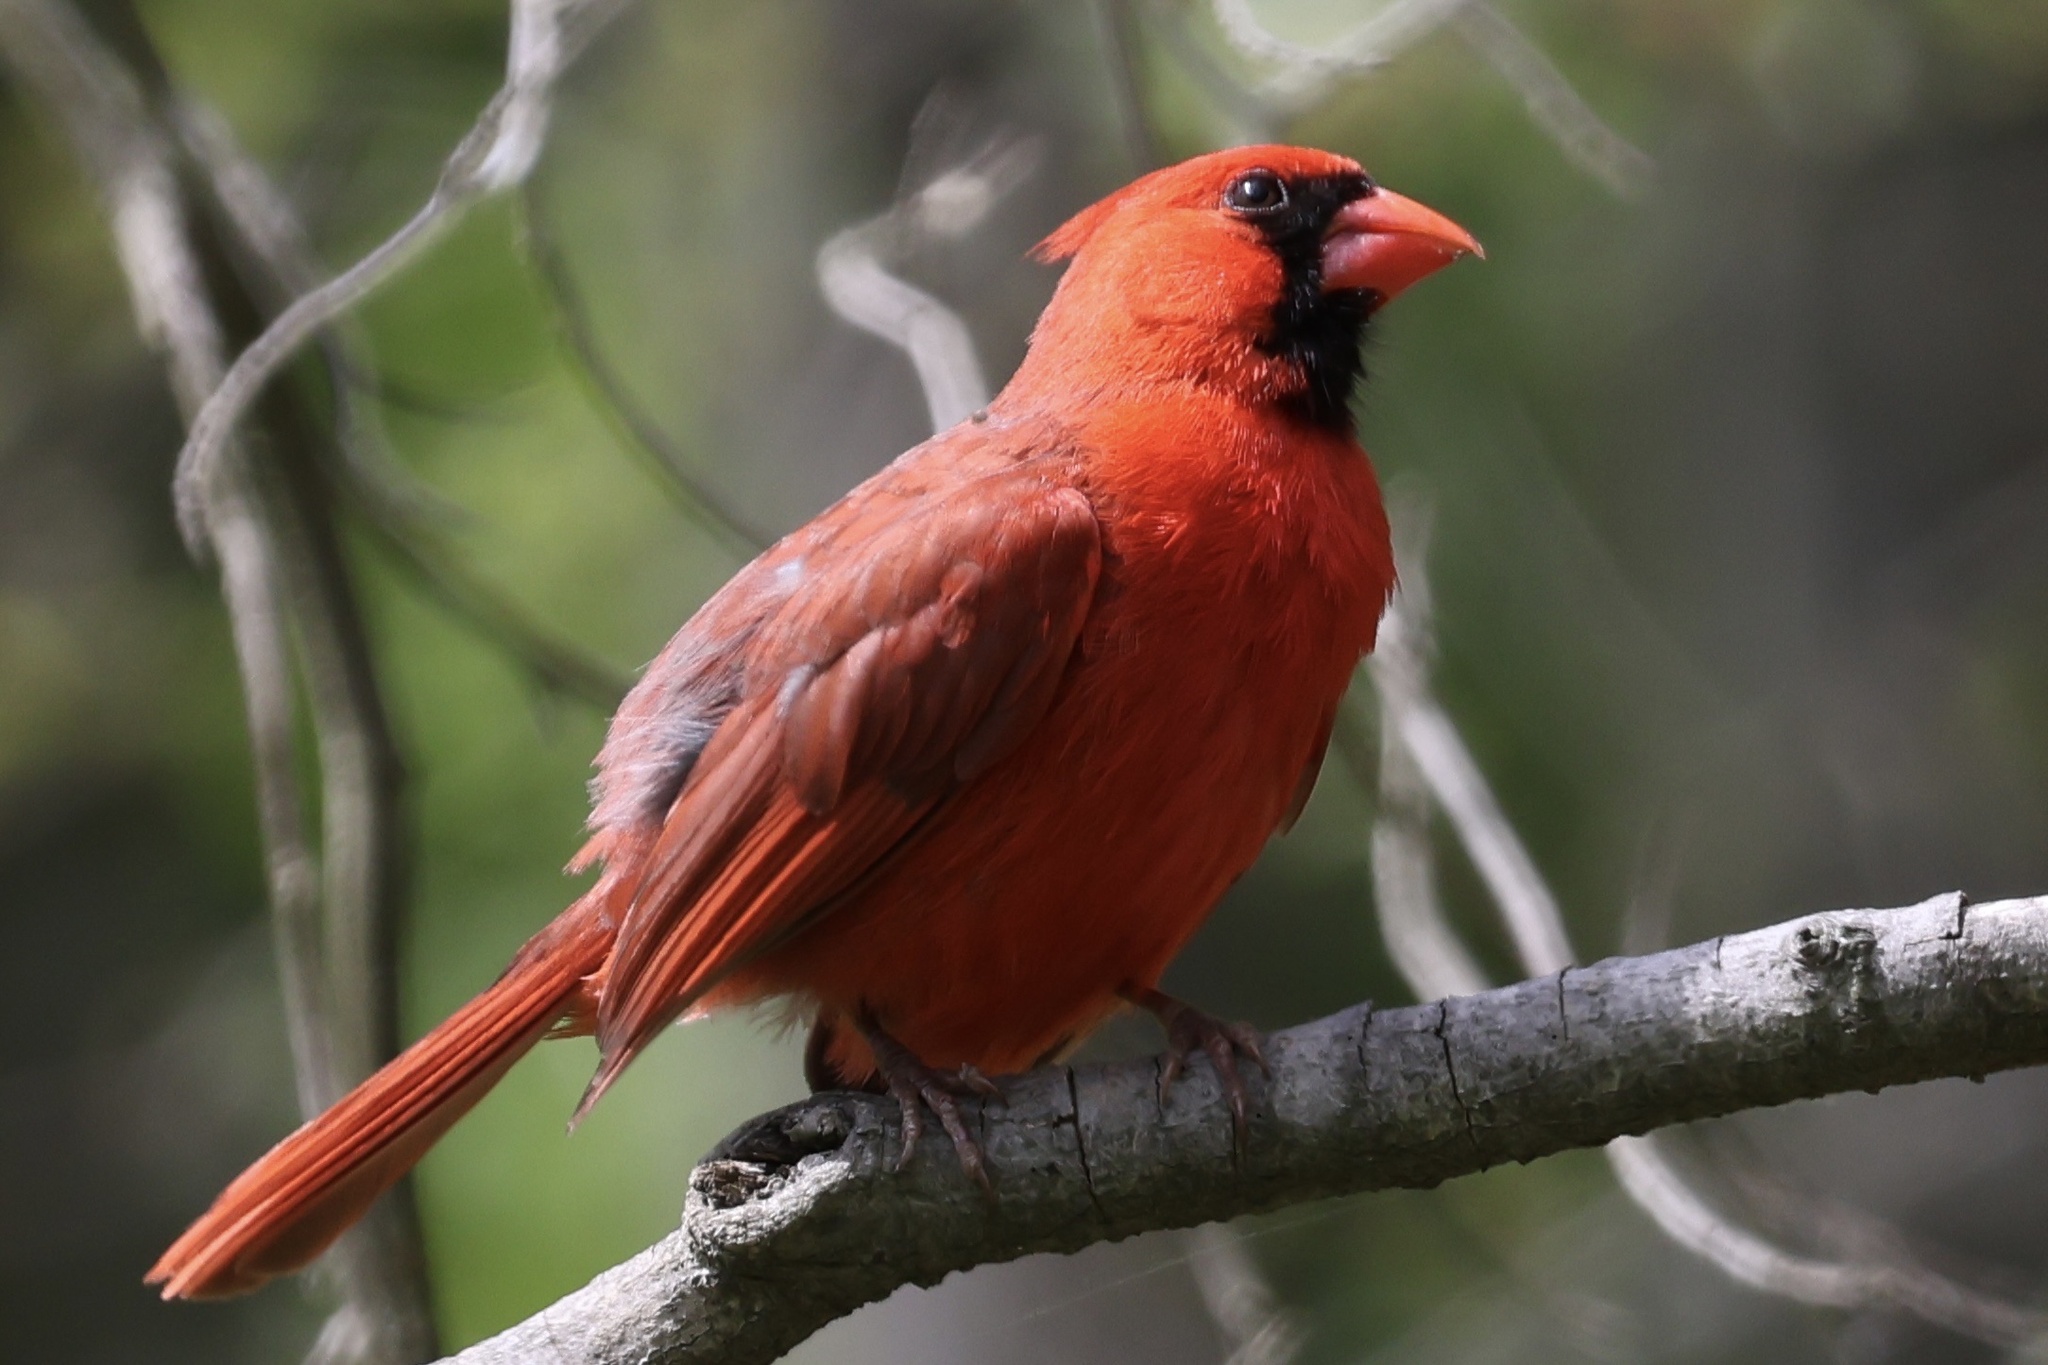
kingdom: Animalia
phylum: Chordata
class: Aves
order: Passeriformes
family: Cardinalidae
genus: Cardinalis
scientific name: Cardinalis cardinalis
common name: Northern cardinal
